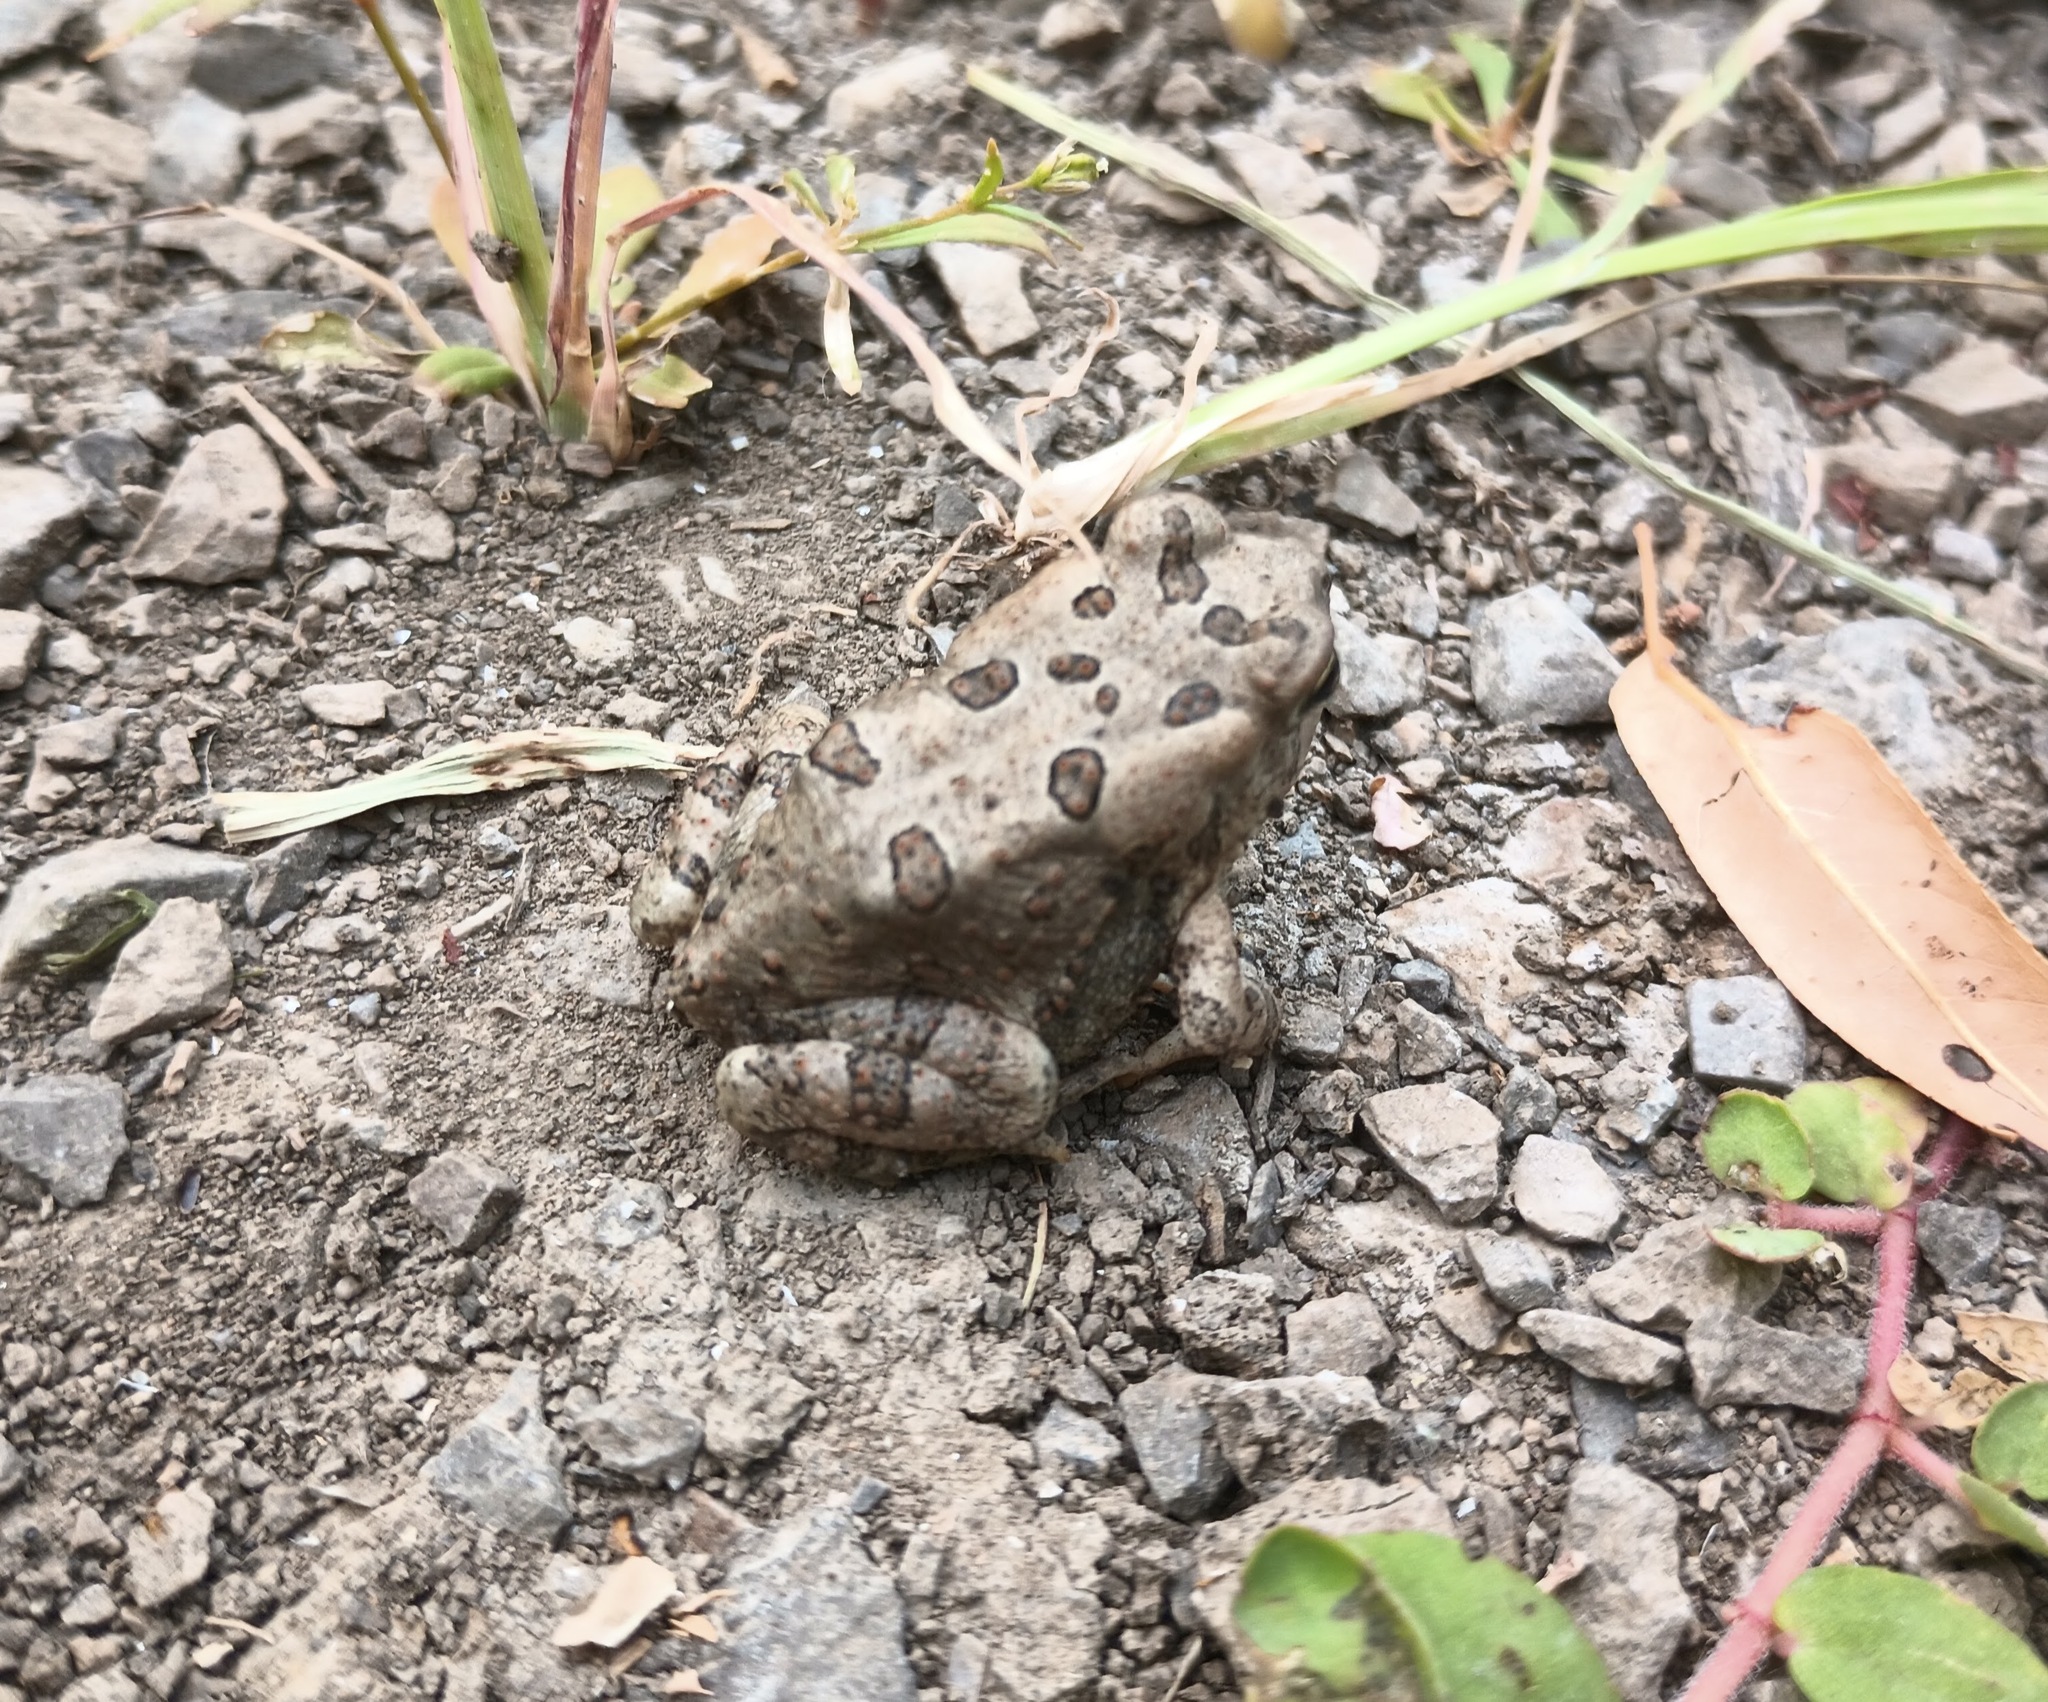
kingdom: Animalia
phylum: Chordata
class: Amphibia
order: Anura
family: Bufonidae
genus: Anaxyrus
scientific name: Anaxyrus fowleri
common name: Fowler's toad
